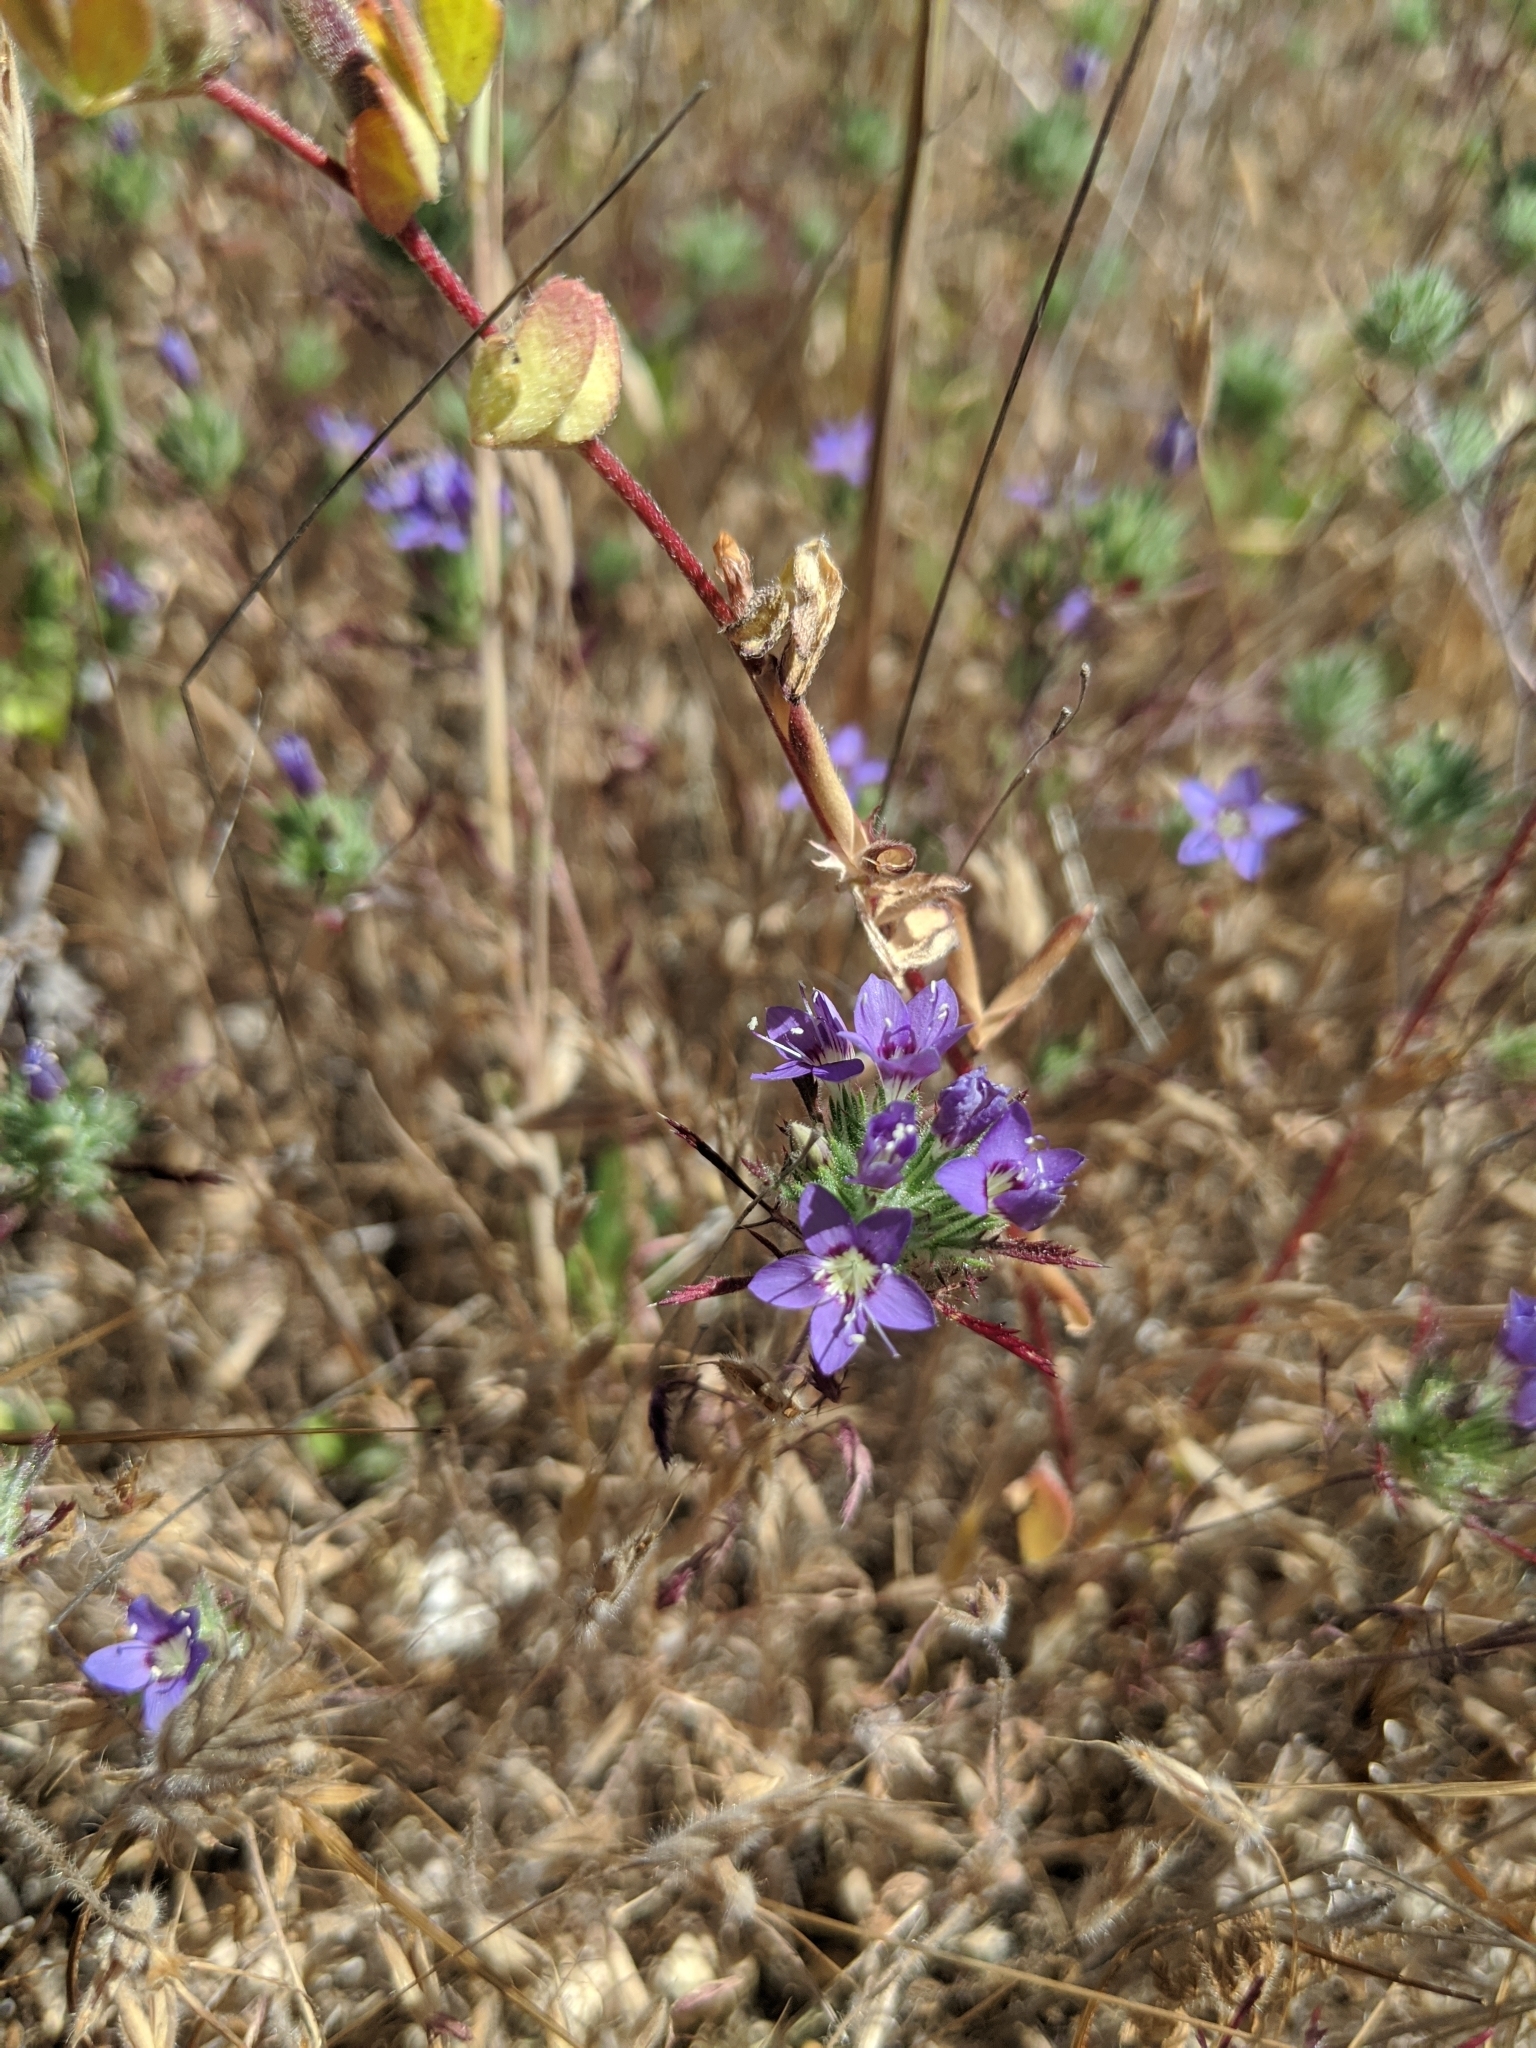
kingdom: Plantae
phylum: Tracheophyta
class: Magnoliopsida
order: Ericales
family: Polemoniaceae
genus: Navarretia
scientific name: Navarretia pubescens
